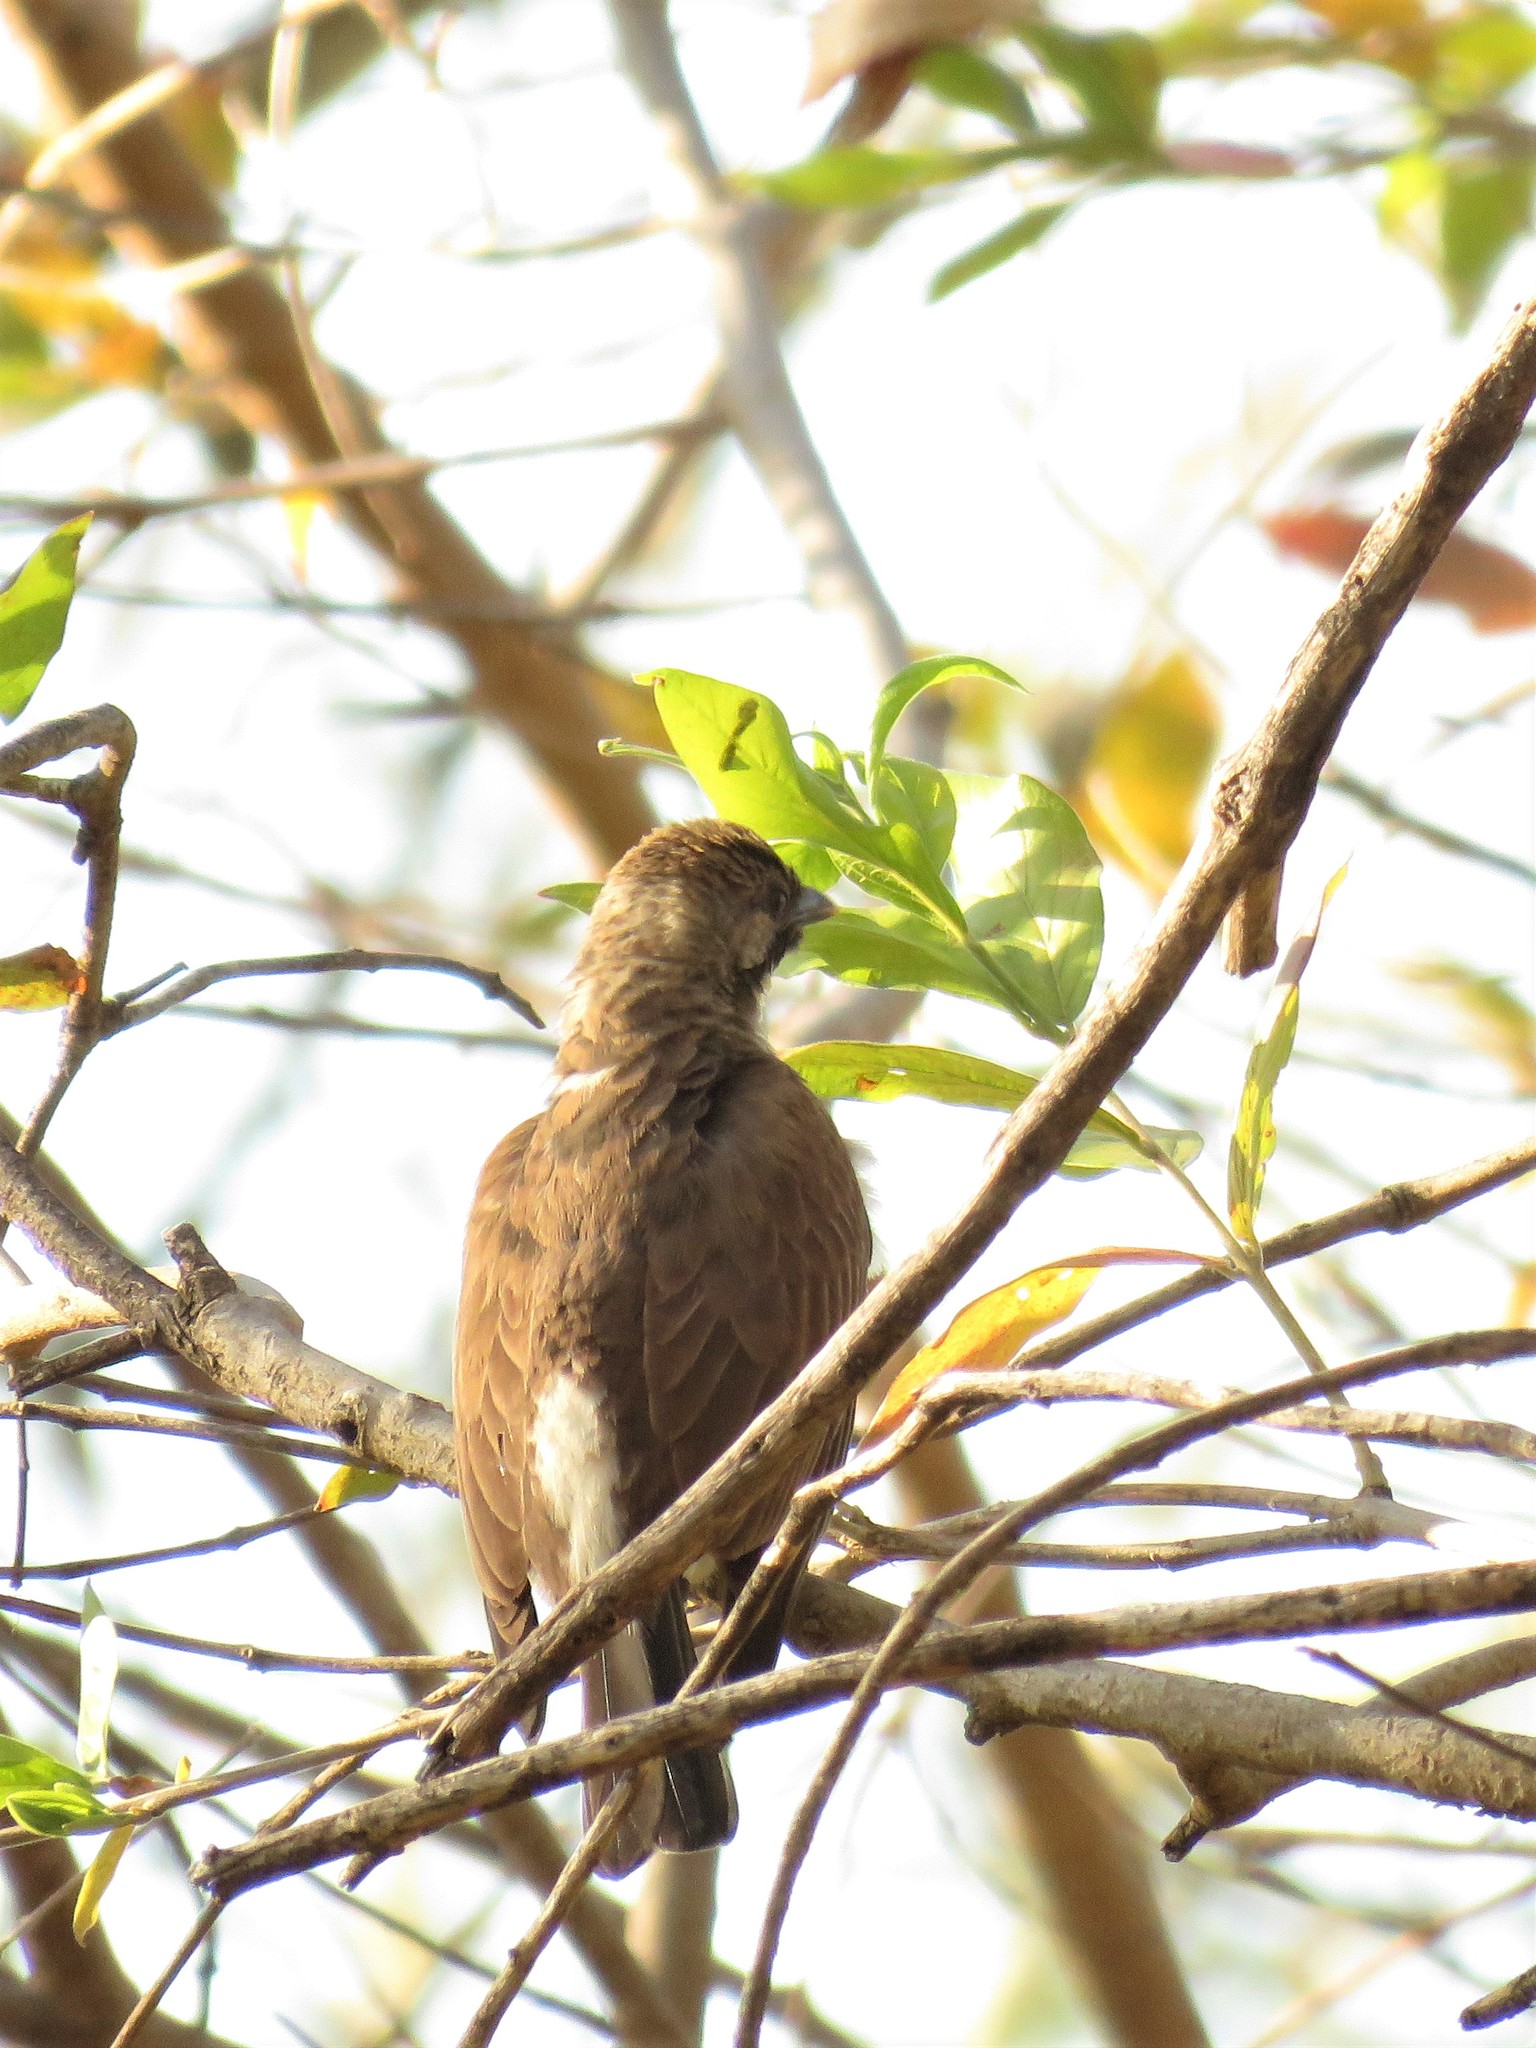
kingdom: Animalia
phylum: Chordata
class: Aves
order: Piciformes
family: Indicatoridae
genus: Indicator
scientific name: Indicator indicator
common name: Greater honeyguide
